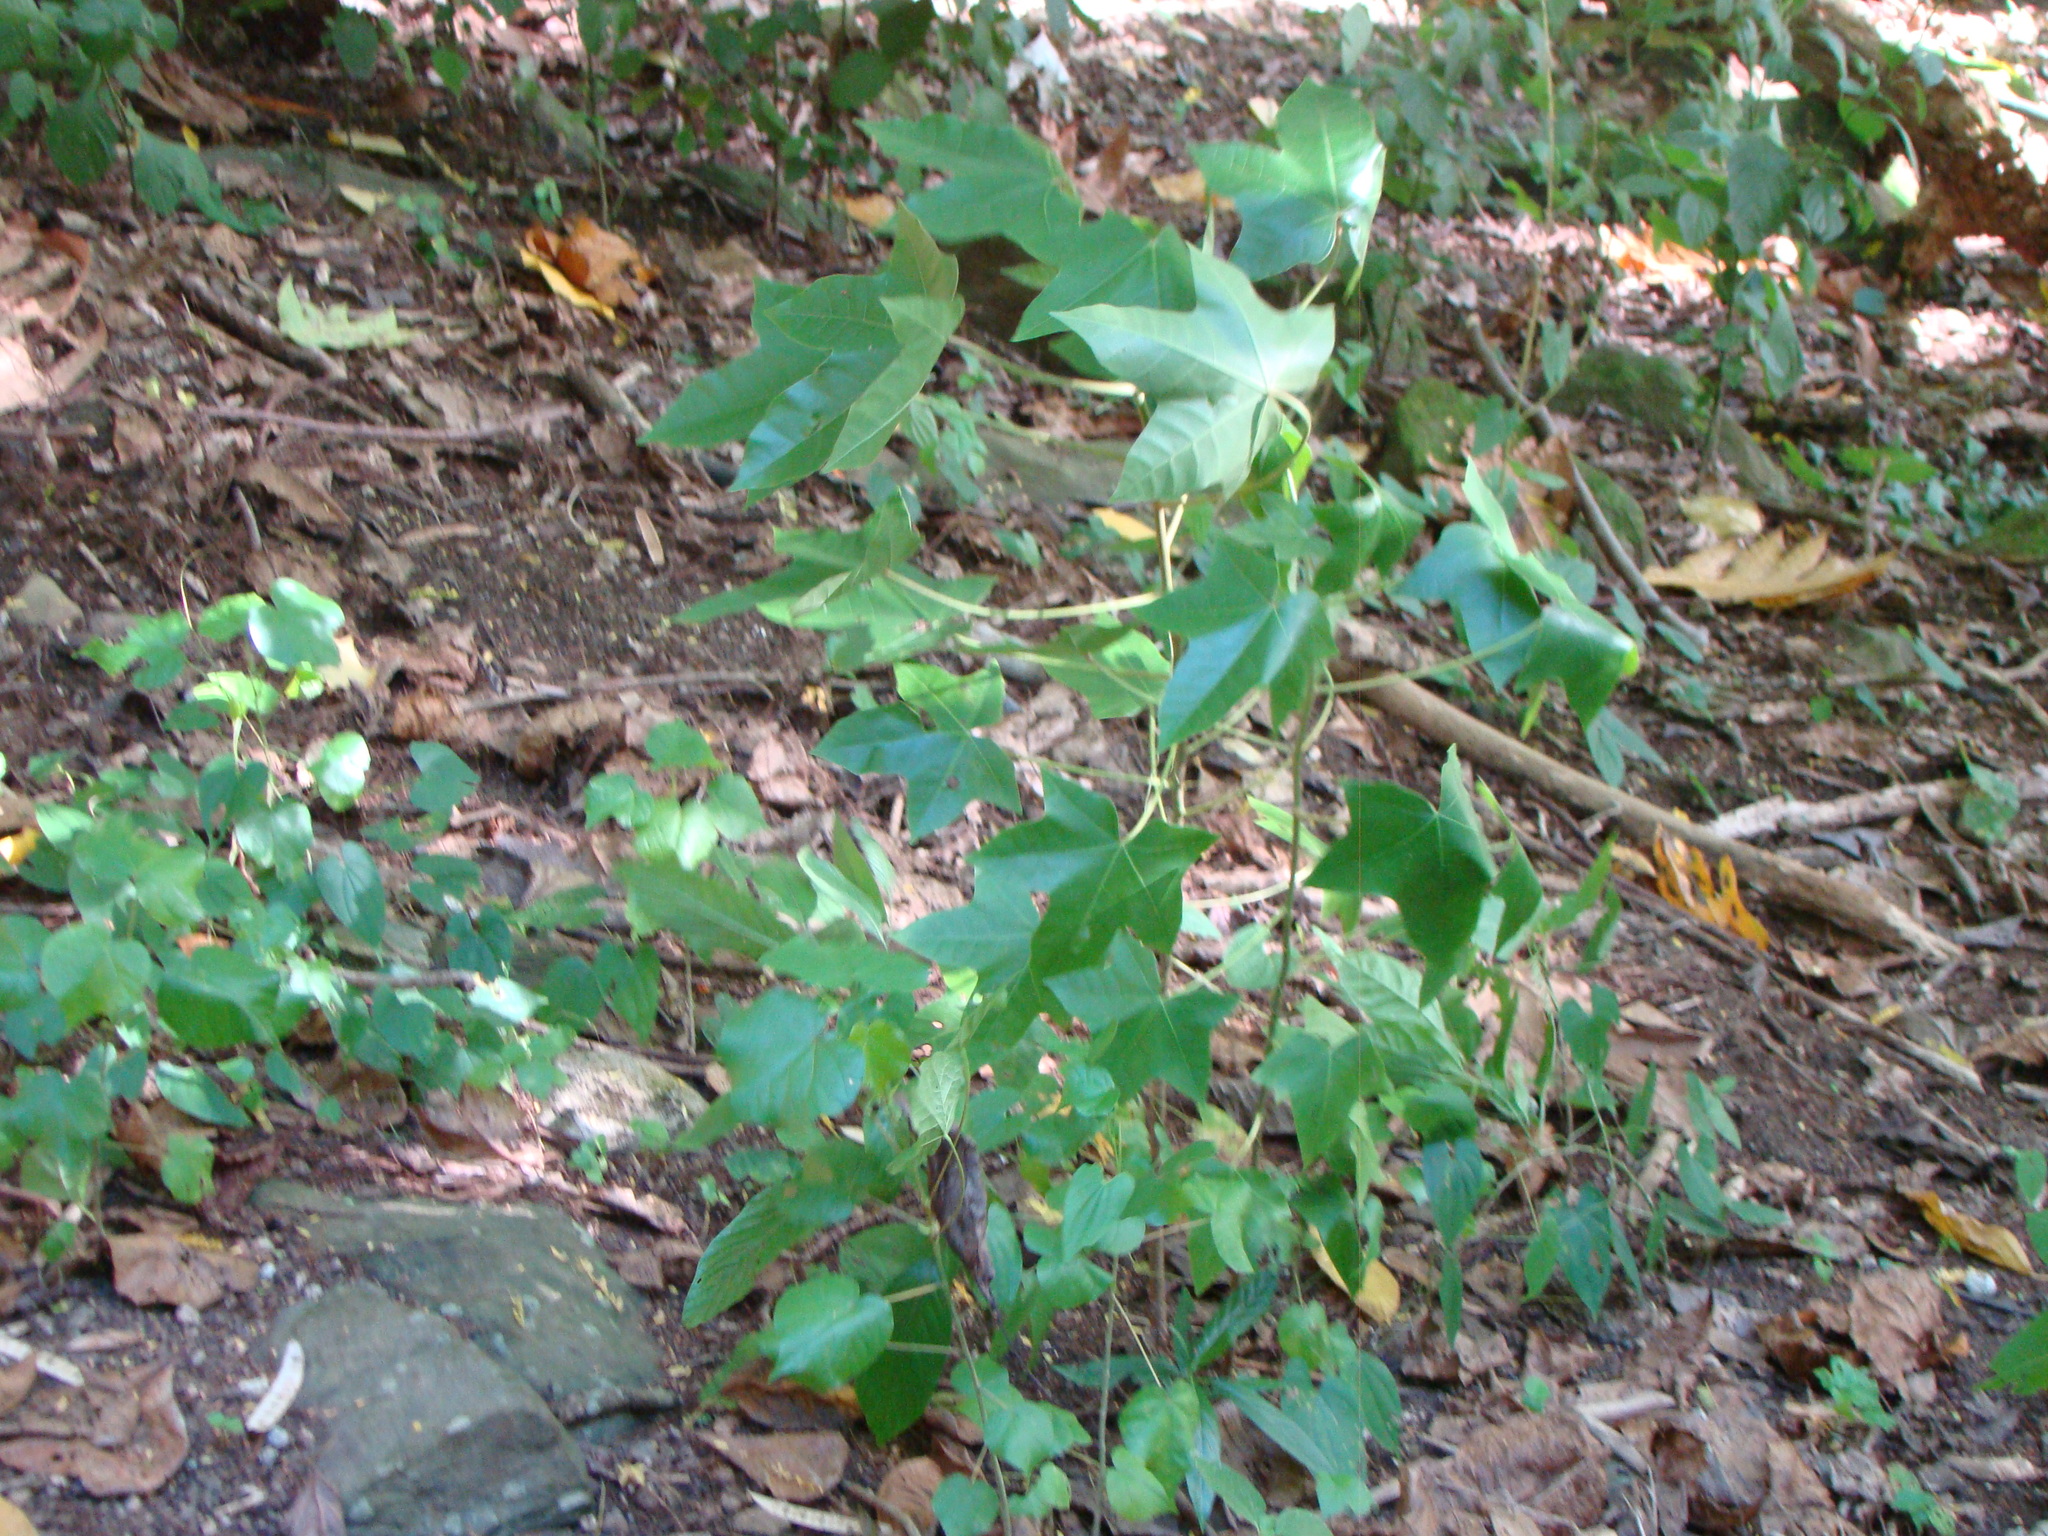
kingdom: Plantae
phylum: Tracheophyta
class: Magnoliopsida
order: Malpighiales
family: Euphorbiaceae
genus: Ricinus
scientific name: Ricinus communis
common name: Castor-oil-plant
